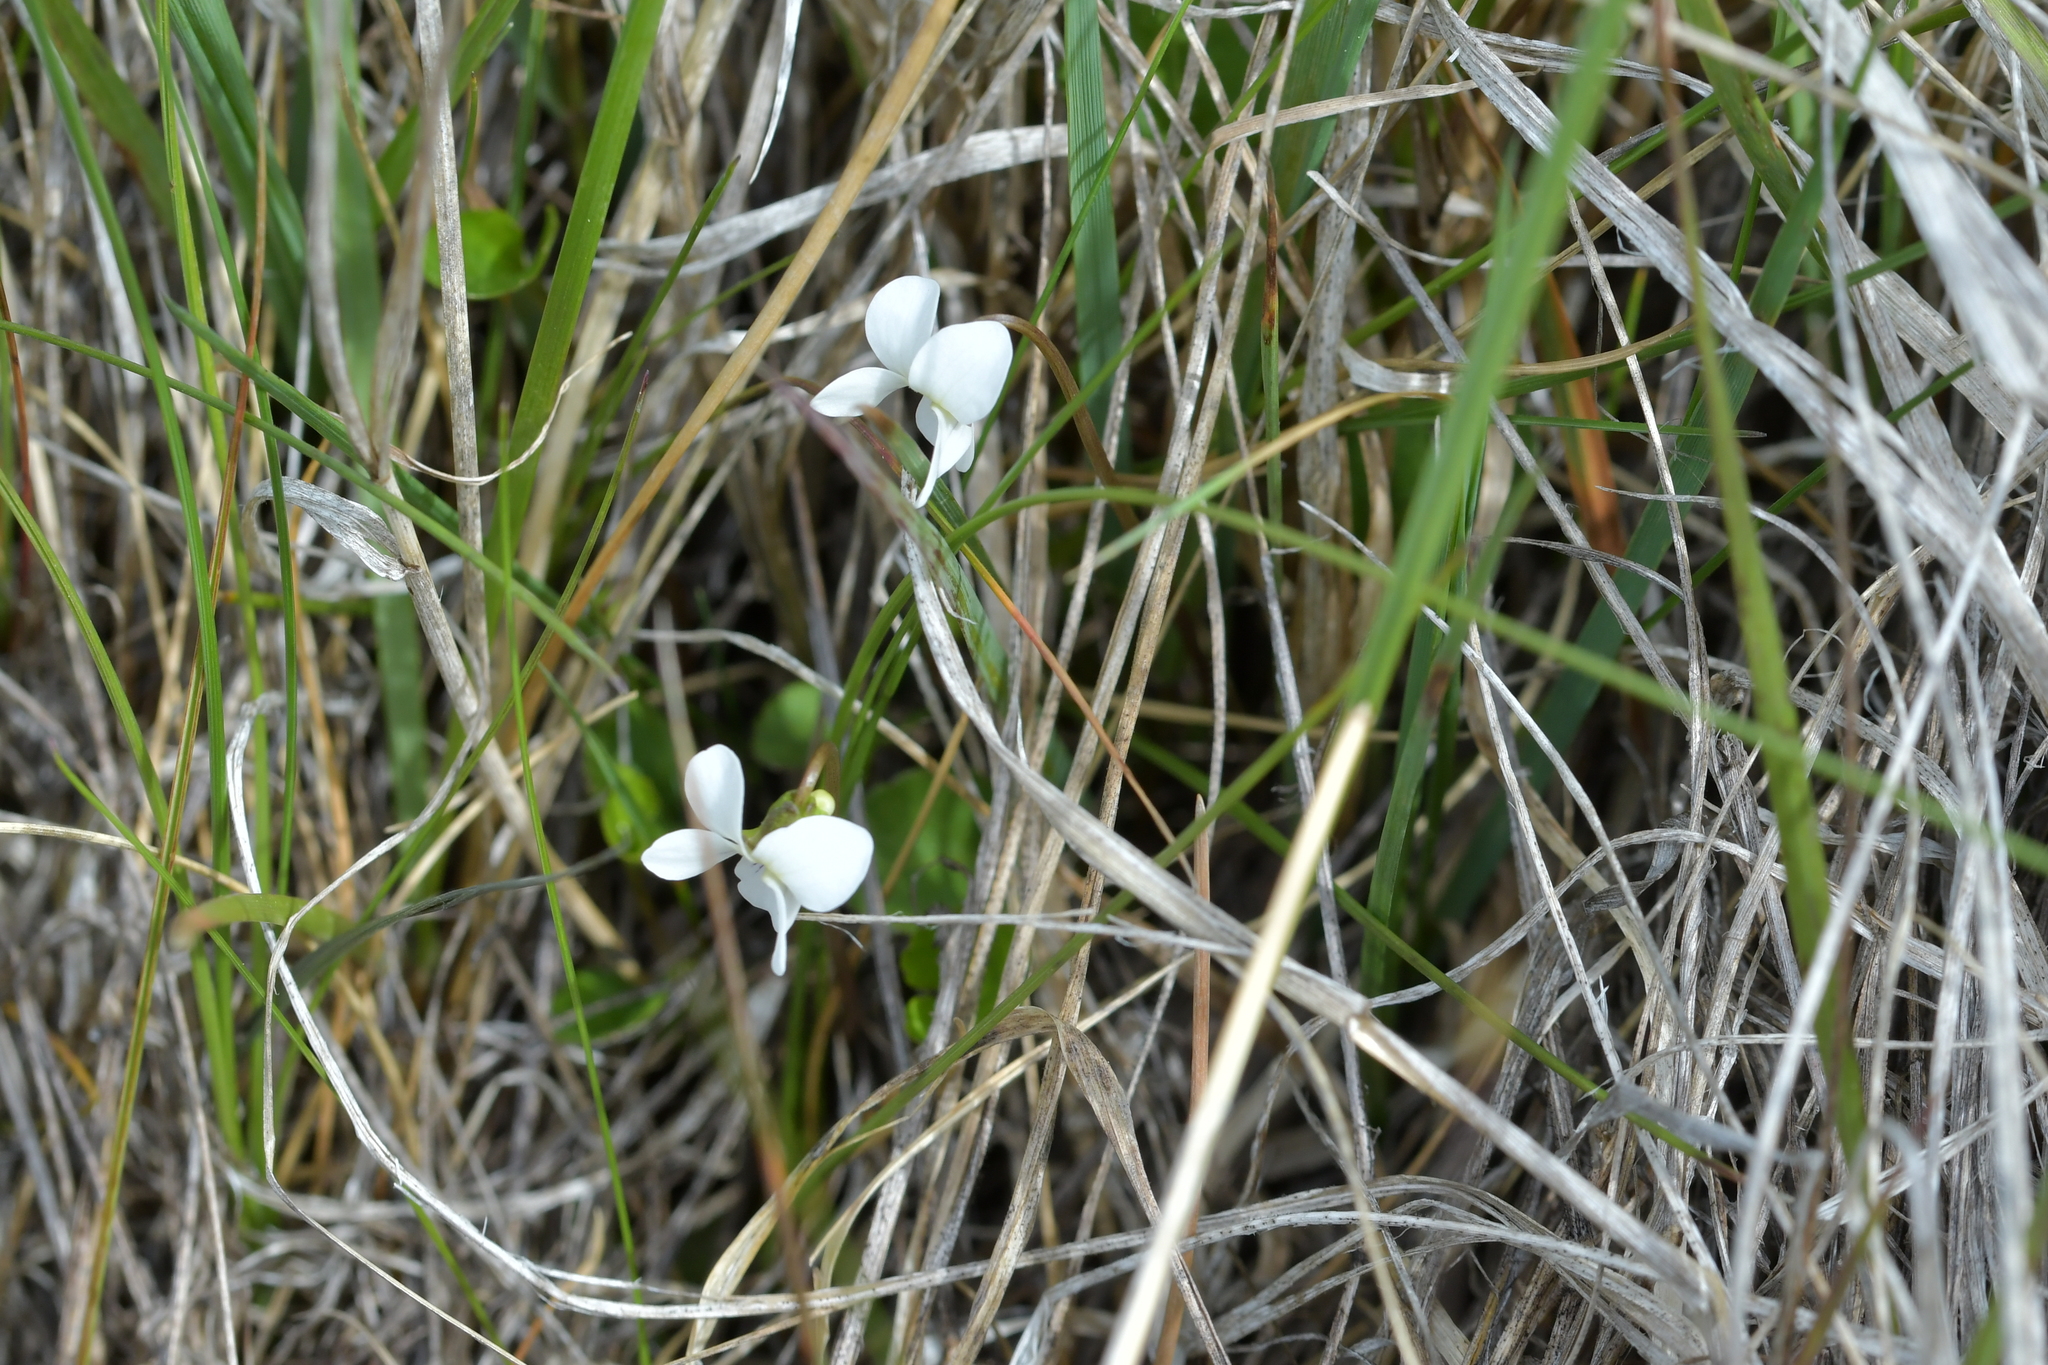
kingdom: Plantae
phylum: Tracheophyta
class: Magnoliopsida
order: Malpighiales
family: Violaceae
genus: Viola
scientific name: Viola cunninghamii
